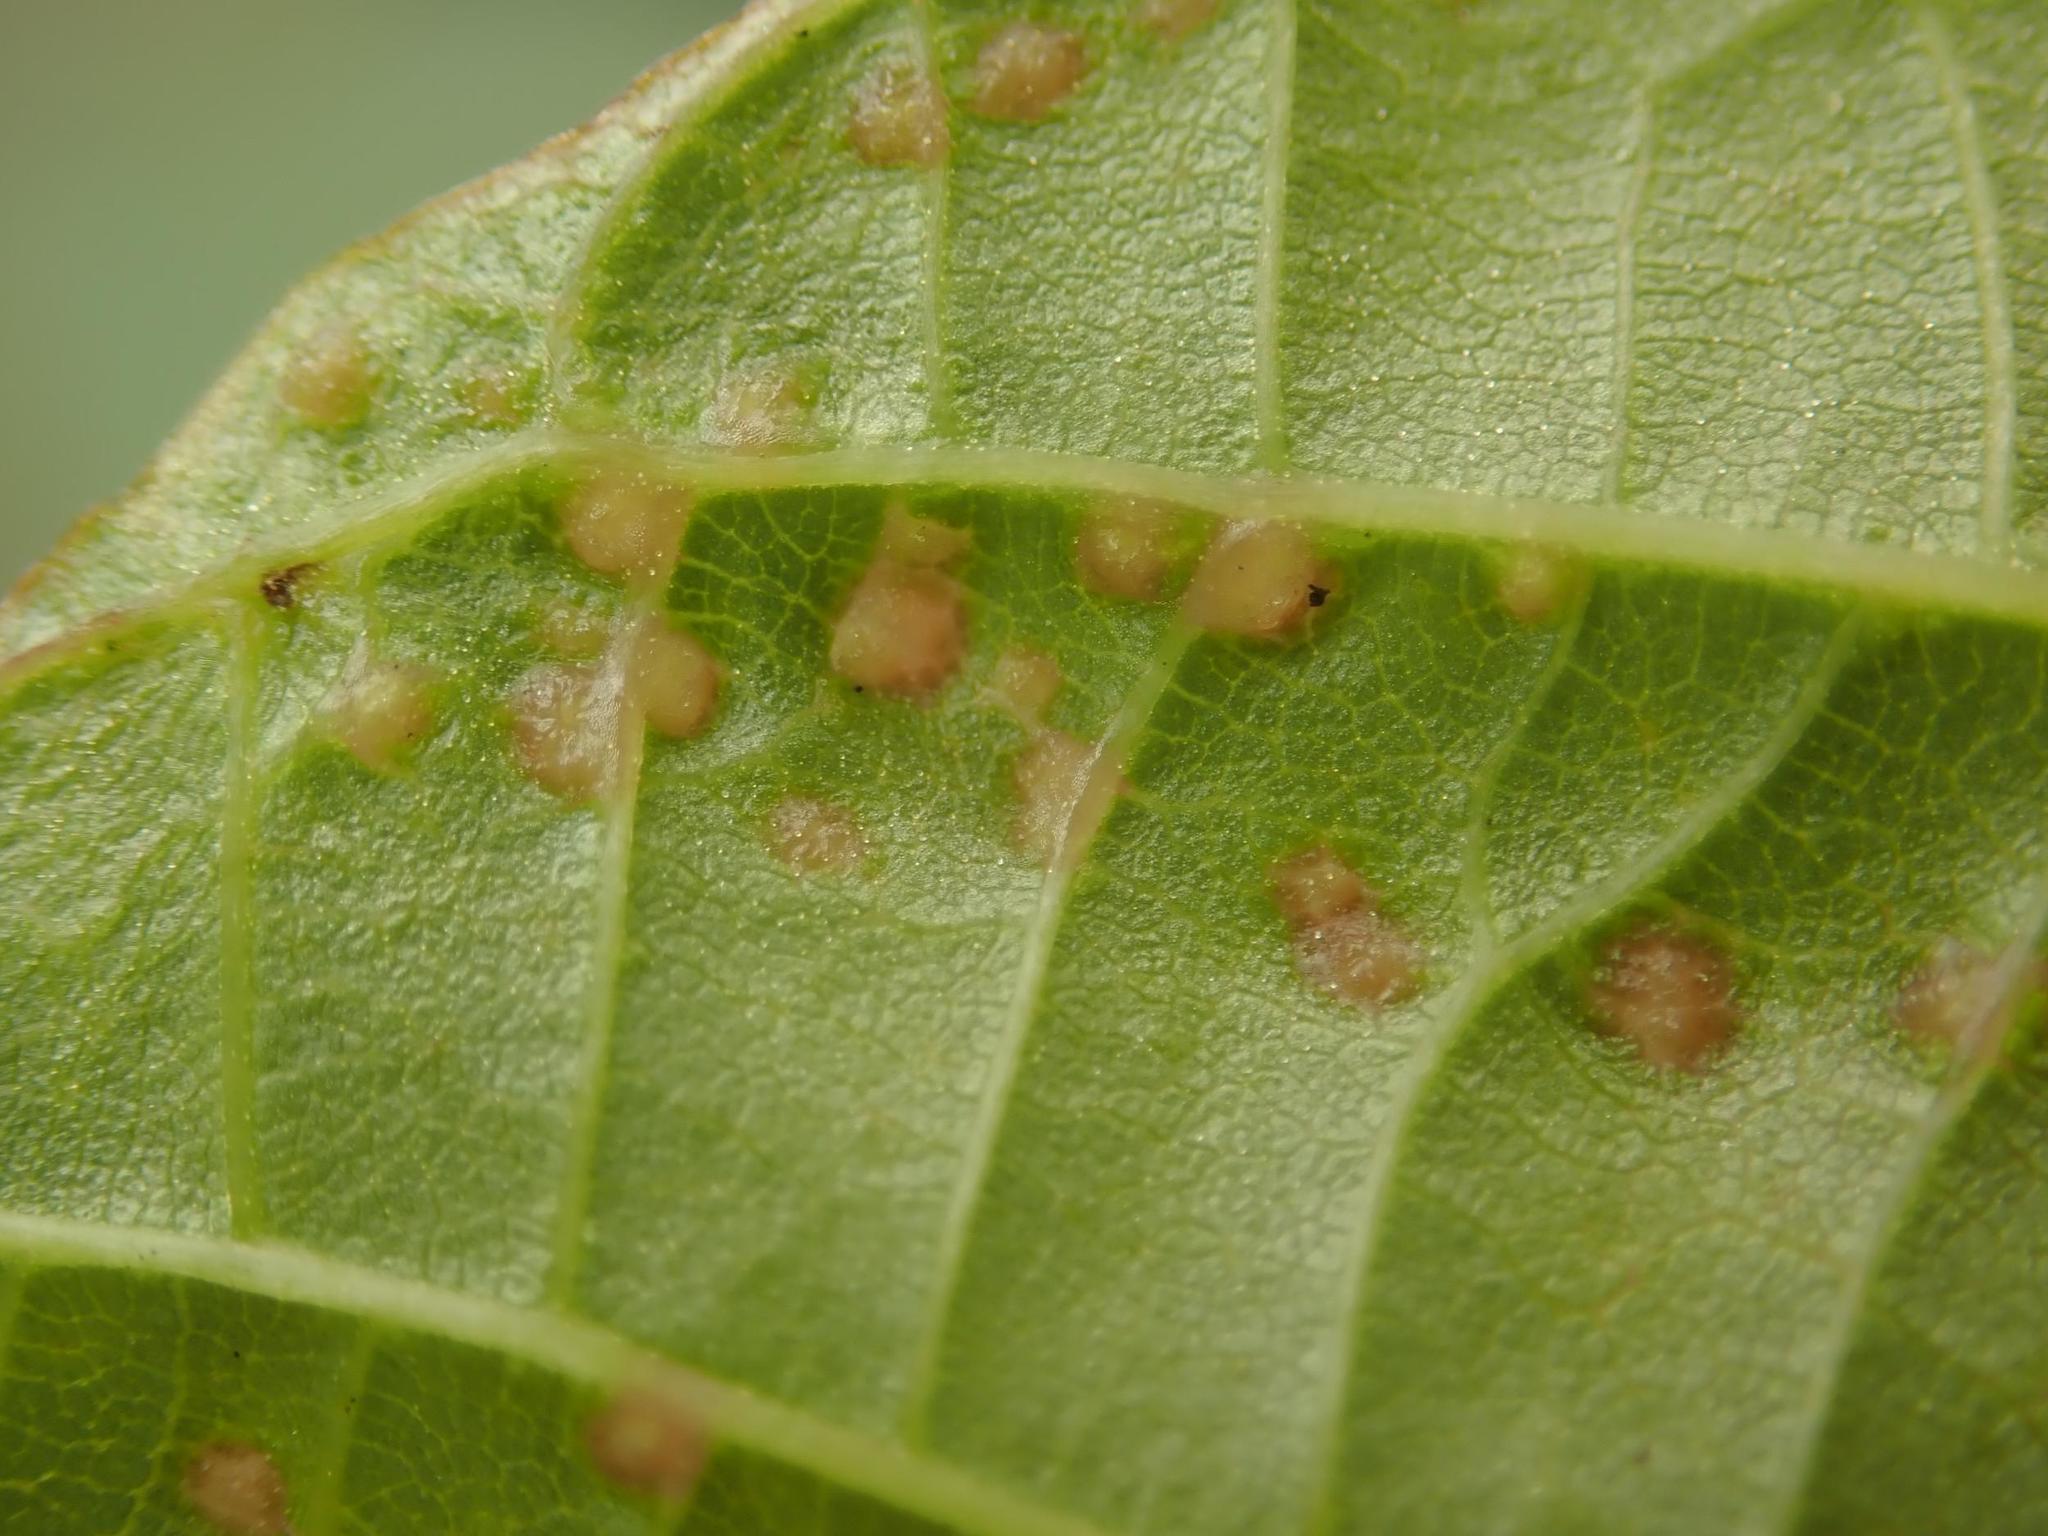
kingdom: Animalia
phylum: Arthropoda
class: Arachnida
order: Trombidiformes
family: Eriophyidae
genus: Aceria
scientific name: Aceria tristriata
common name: Persian walnut leaf blister mite
